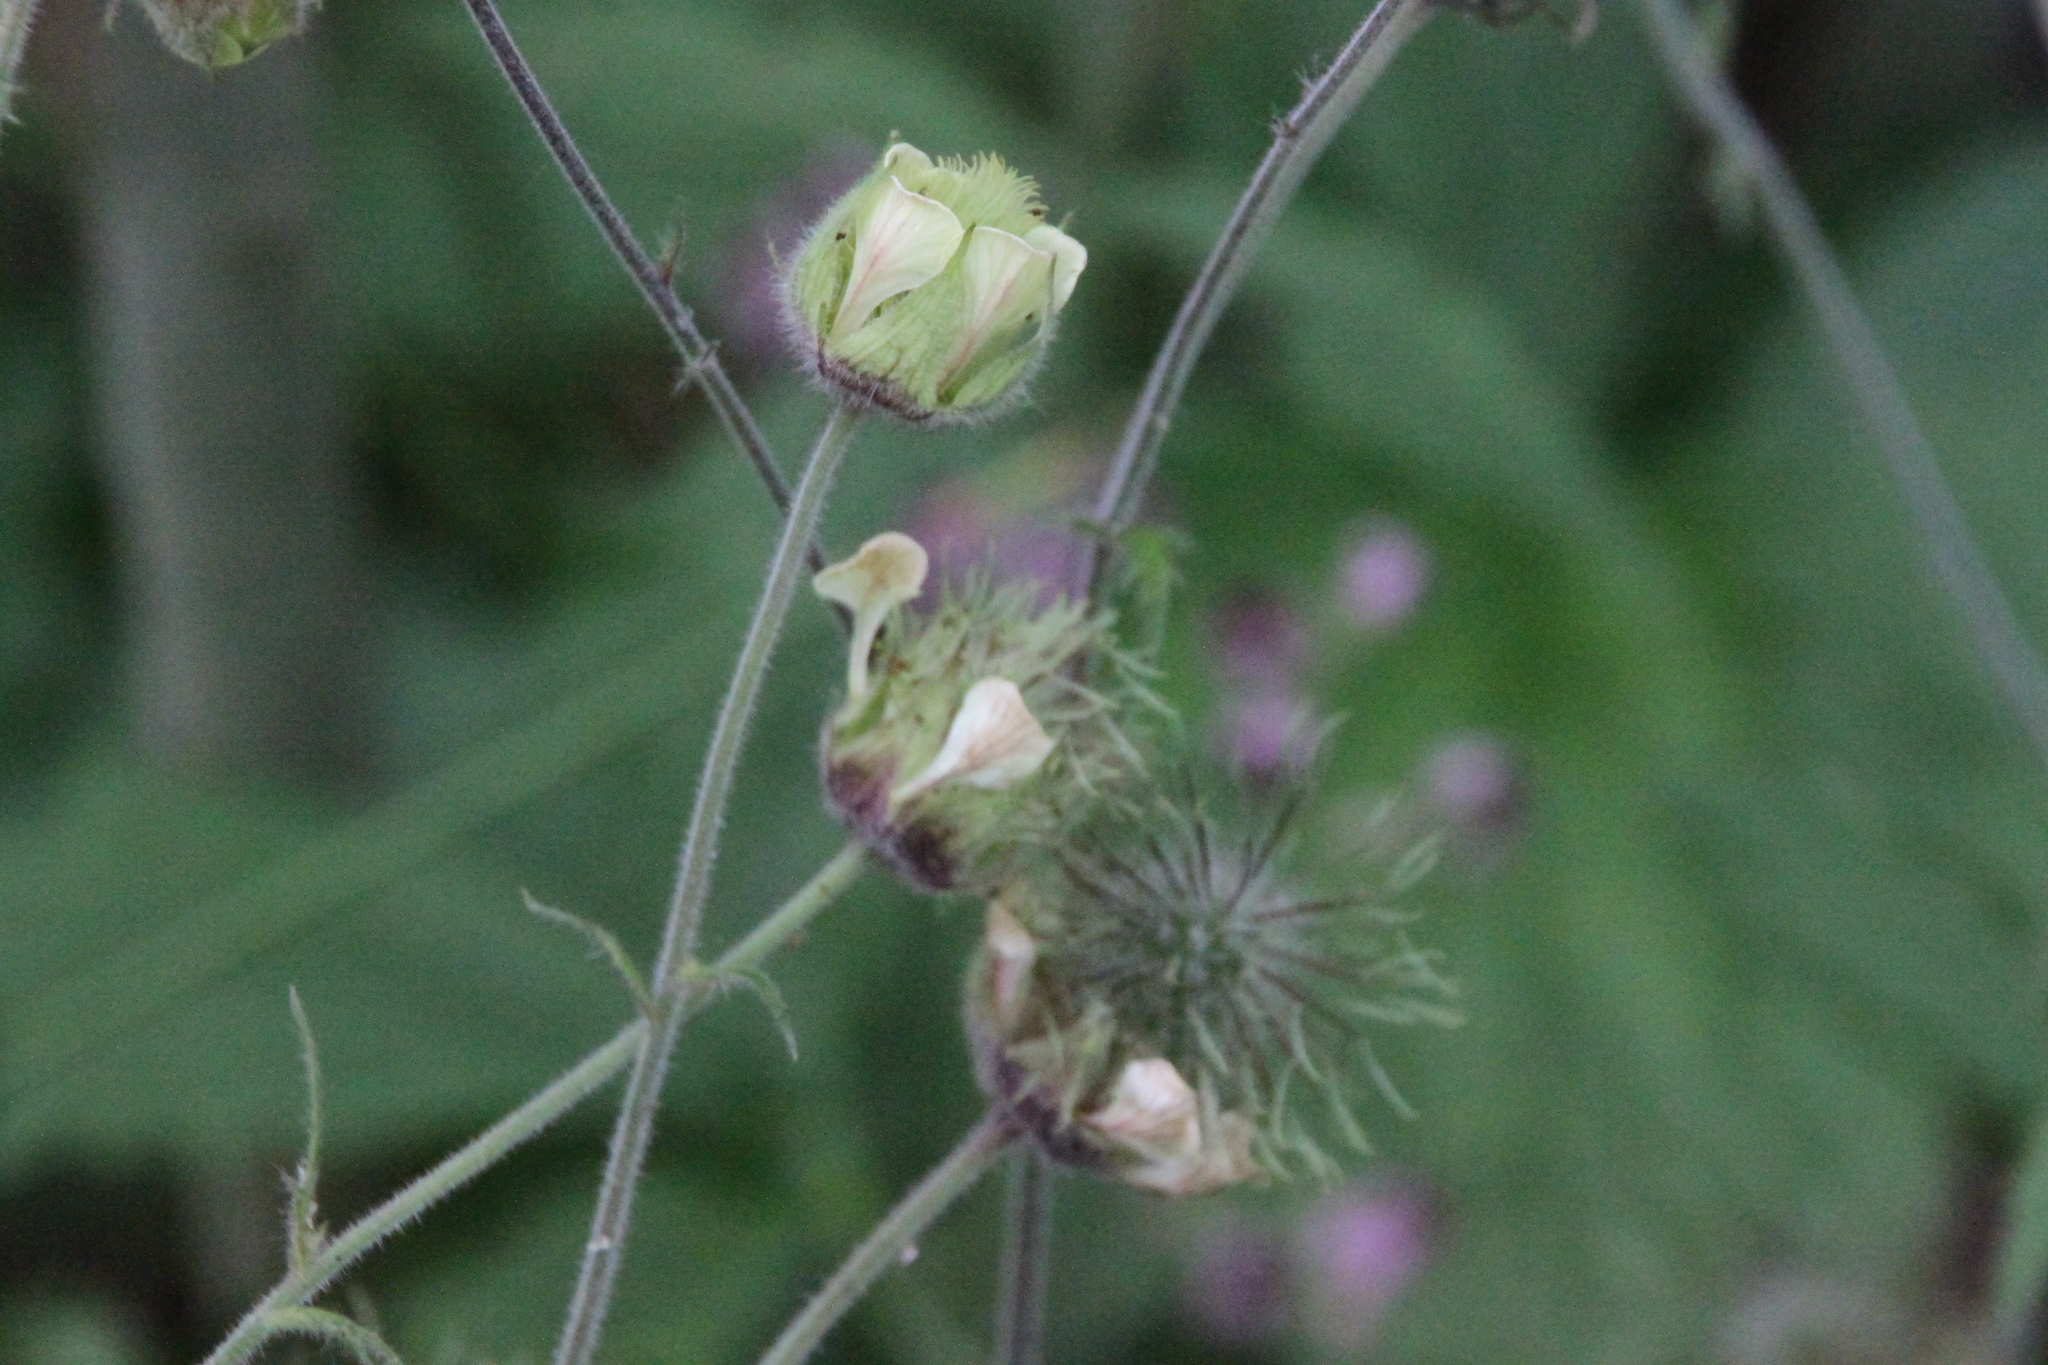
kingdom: Plantae
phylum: Tracheophyta
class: Magnoliopsida
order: Rosales
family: Rosaceae
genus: Geum
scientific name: Geum rivale
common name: Water avens
